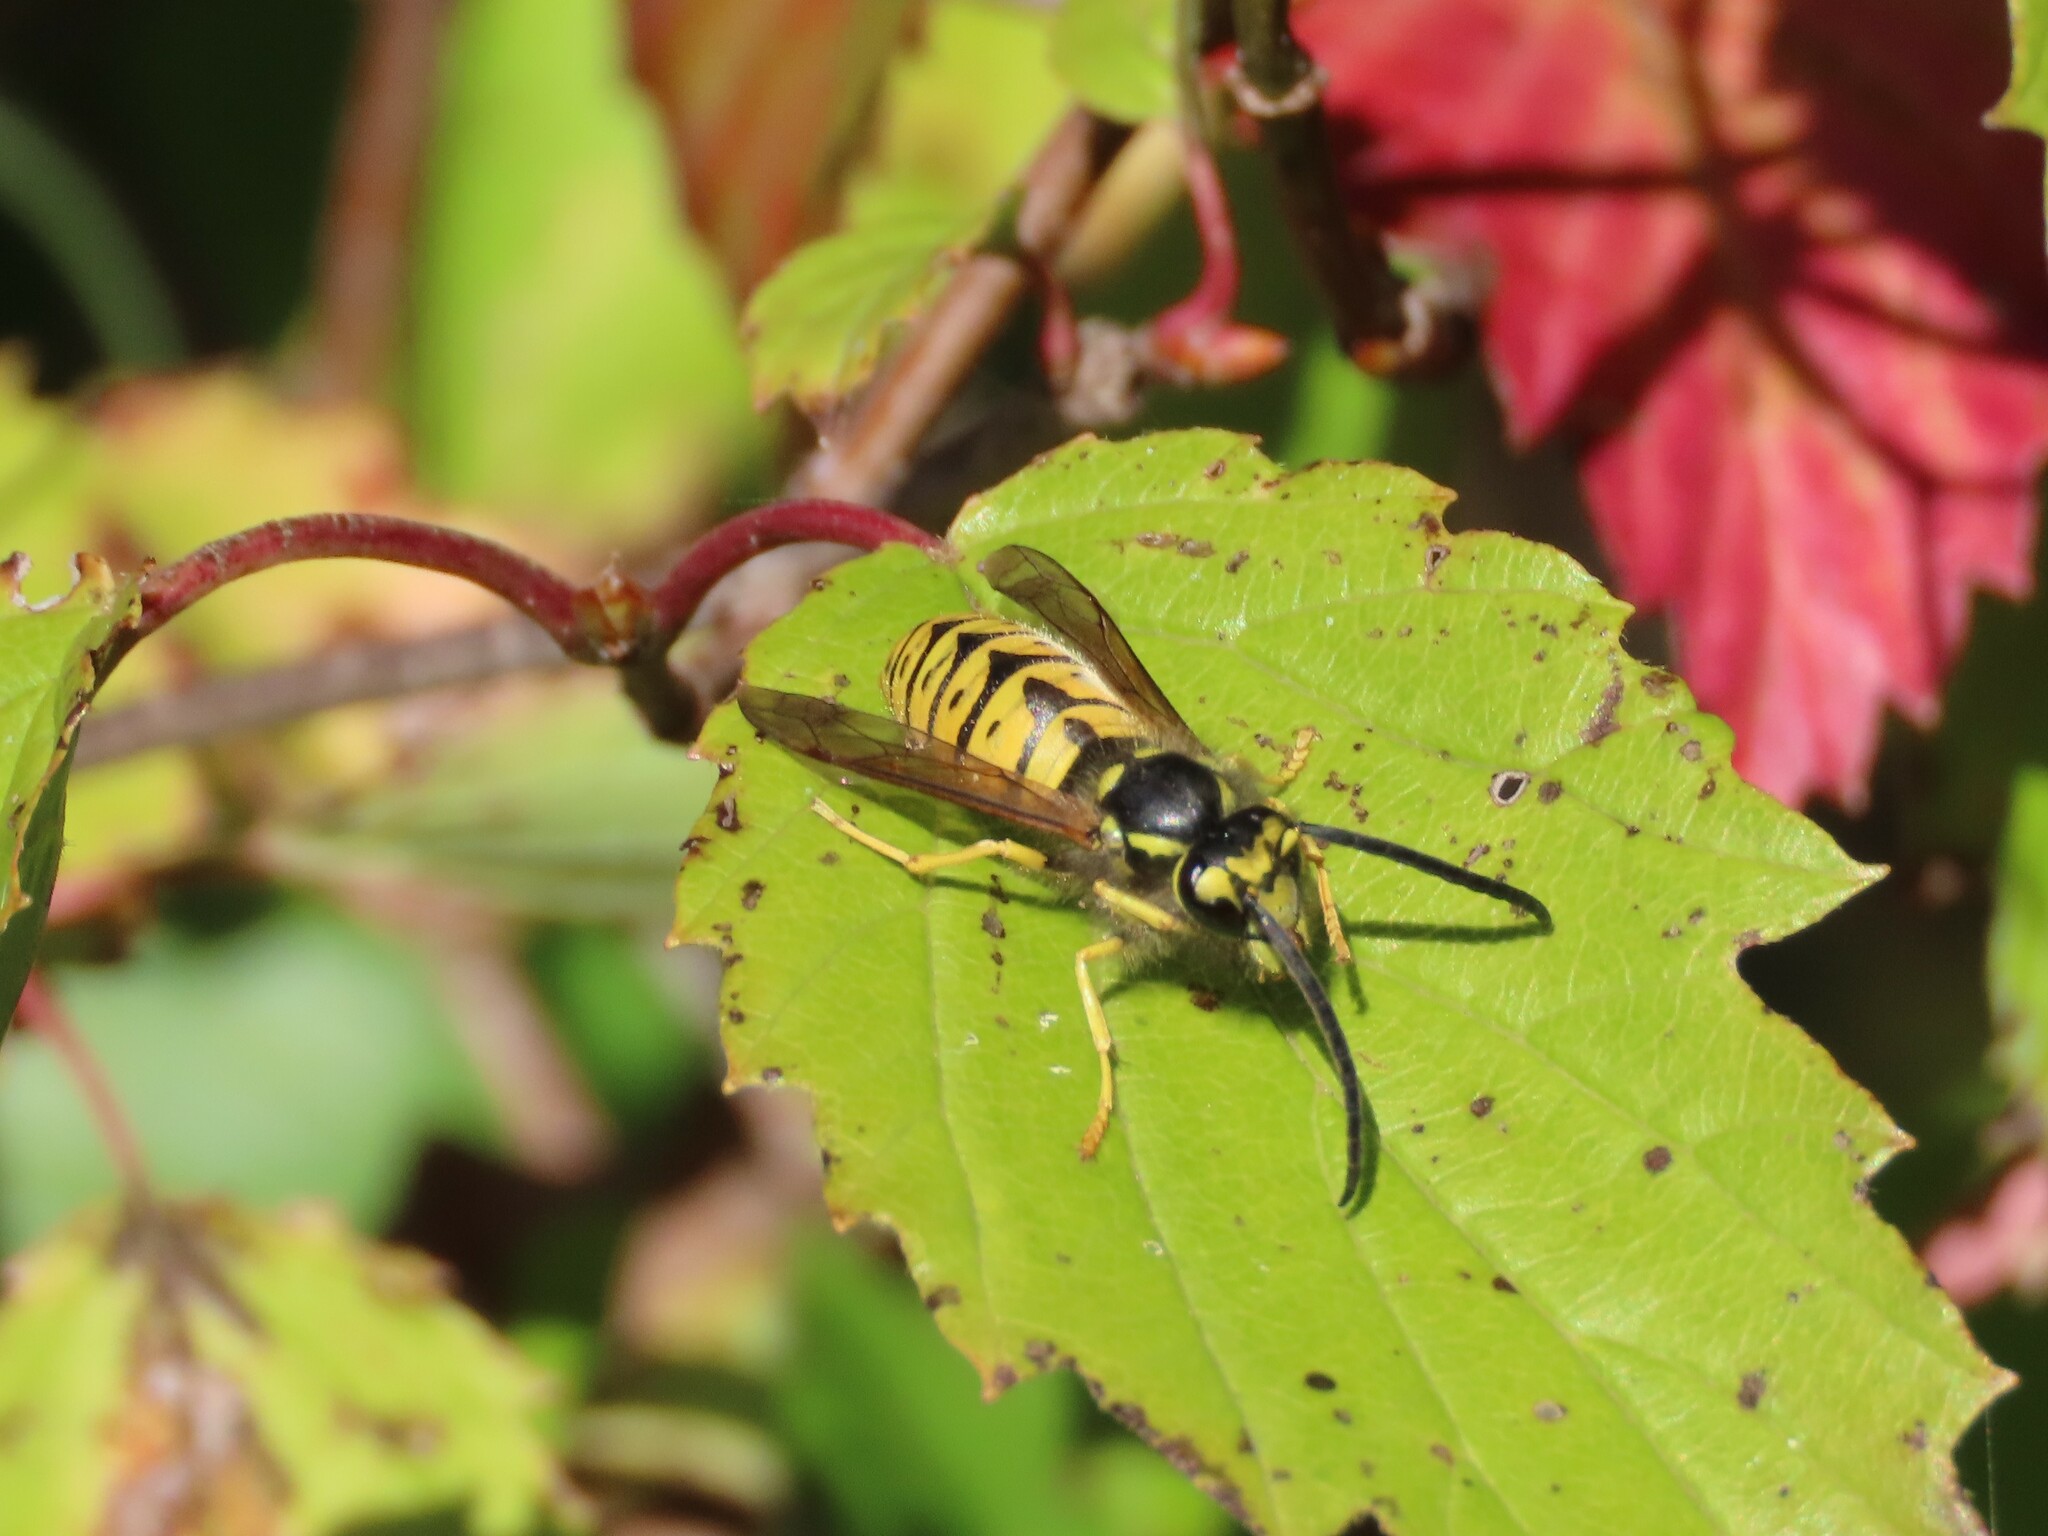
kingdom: Animalia
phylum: Arthropoda
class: Insecta
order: Hymenoptera
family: Vespidae
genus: Vespula
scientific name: Vespula germanica
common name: German wasp
